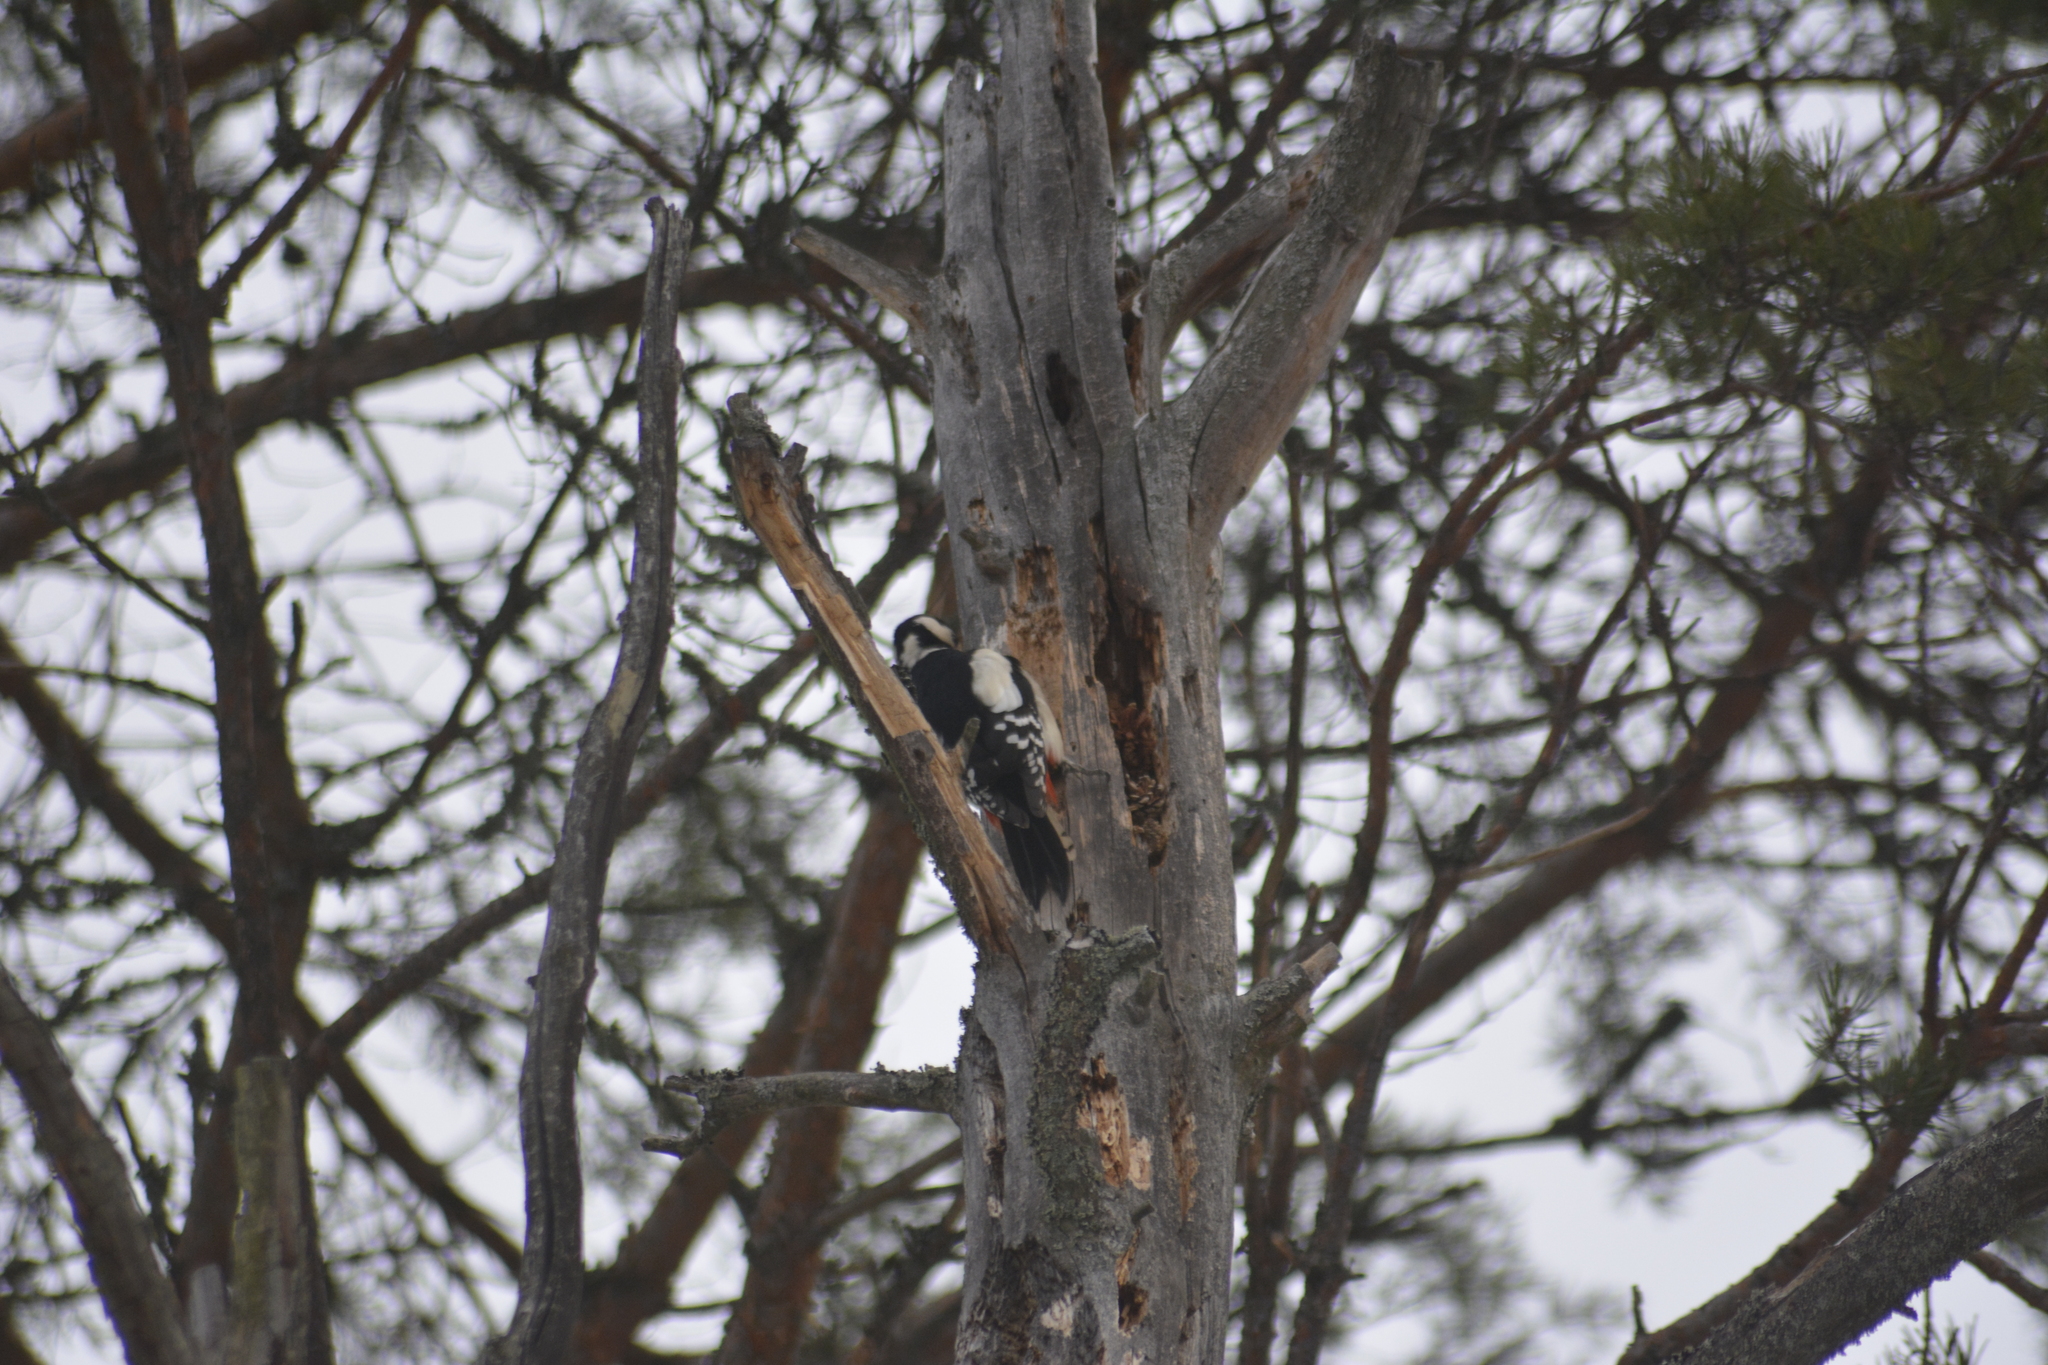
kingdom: Animalia
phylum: Chordata
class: Aves
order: Piciformes
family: Picidae
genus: Dendrocopos
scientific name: Dendrocopos major
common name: Great spotted woodpecker
